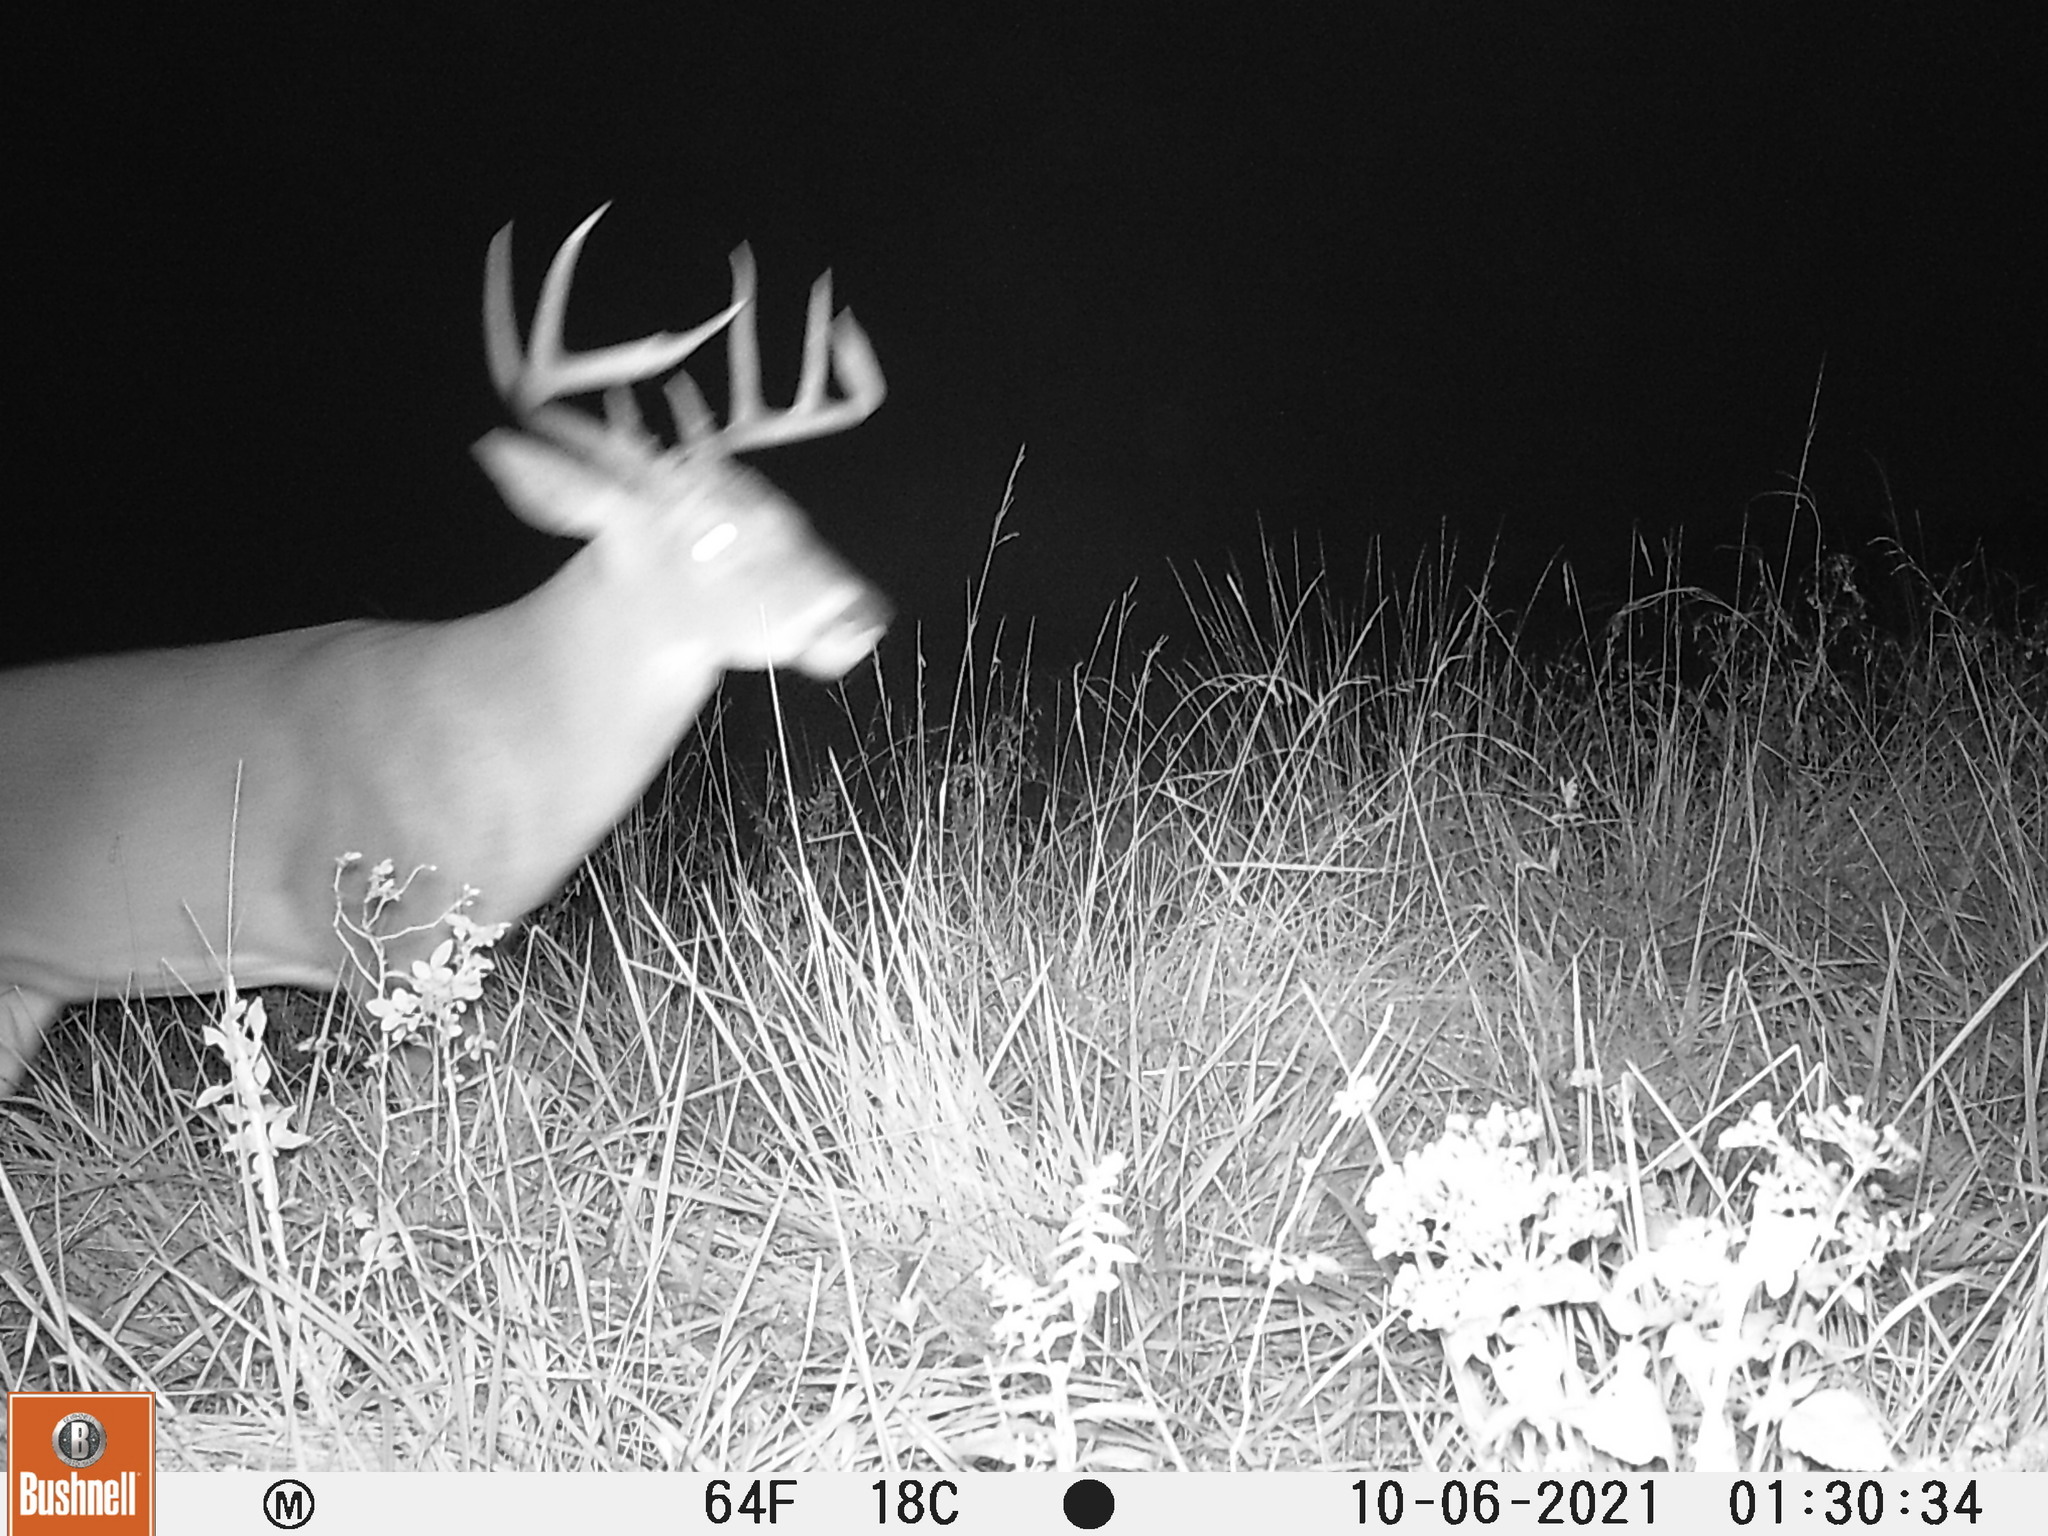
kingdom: Animalia
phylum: Chordata
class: Mammalia
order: Artiodactyla
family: Cervidae
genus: Odocoileus
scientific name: Odocoileus virginianus
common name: White-tailed deer
